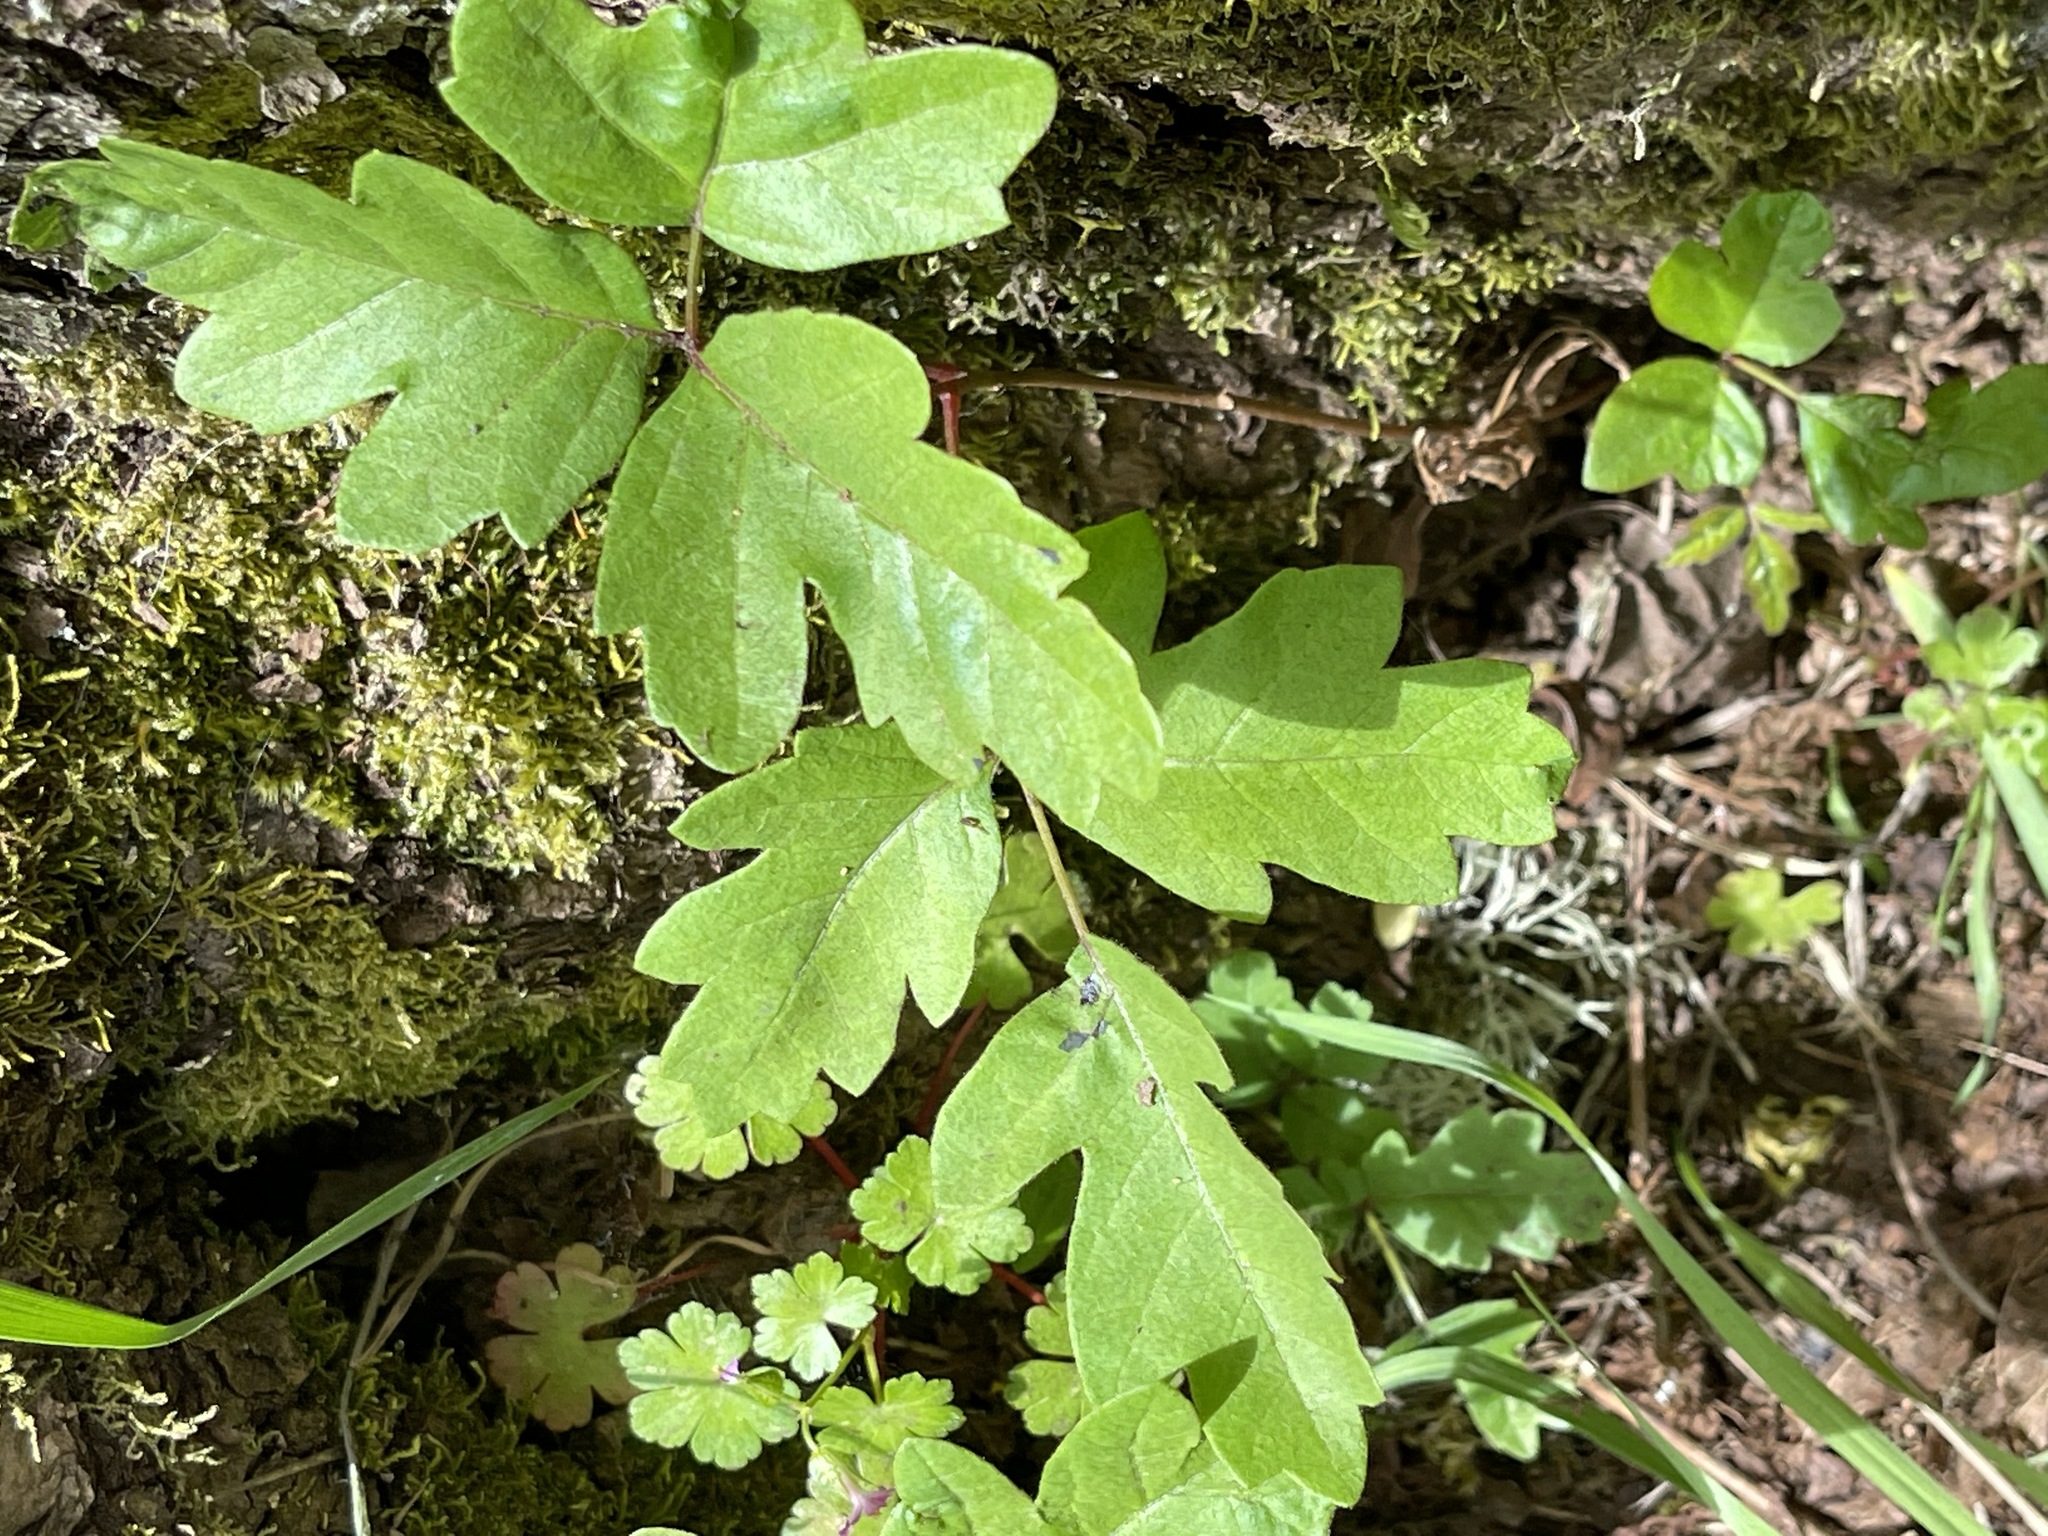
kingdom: Plantae
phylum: Tracheophyta
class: Magnoliopsida
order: Sapindales
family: Anacardiaceae
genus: Toxicodendron
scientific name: Toxicodendron diversilobum
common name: Pacific poison-oak
